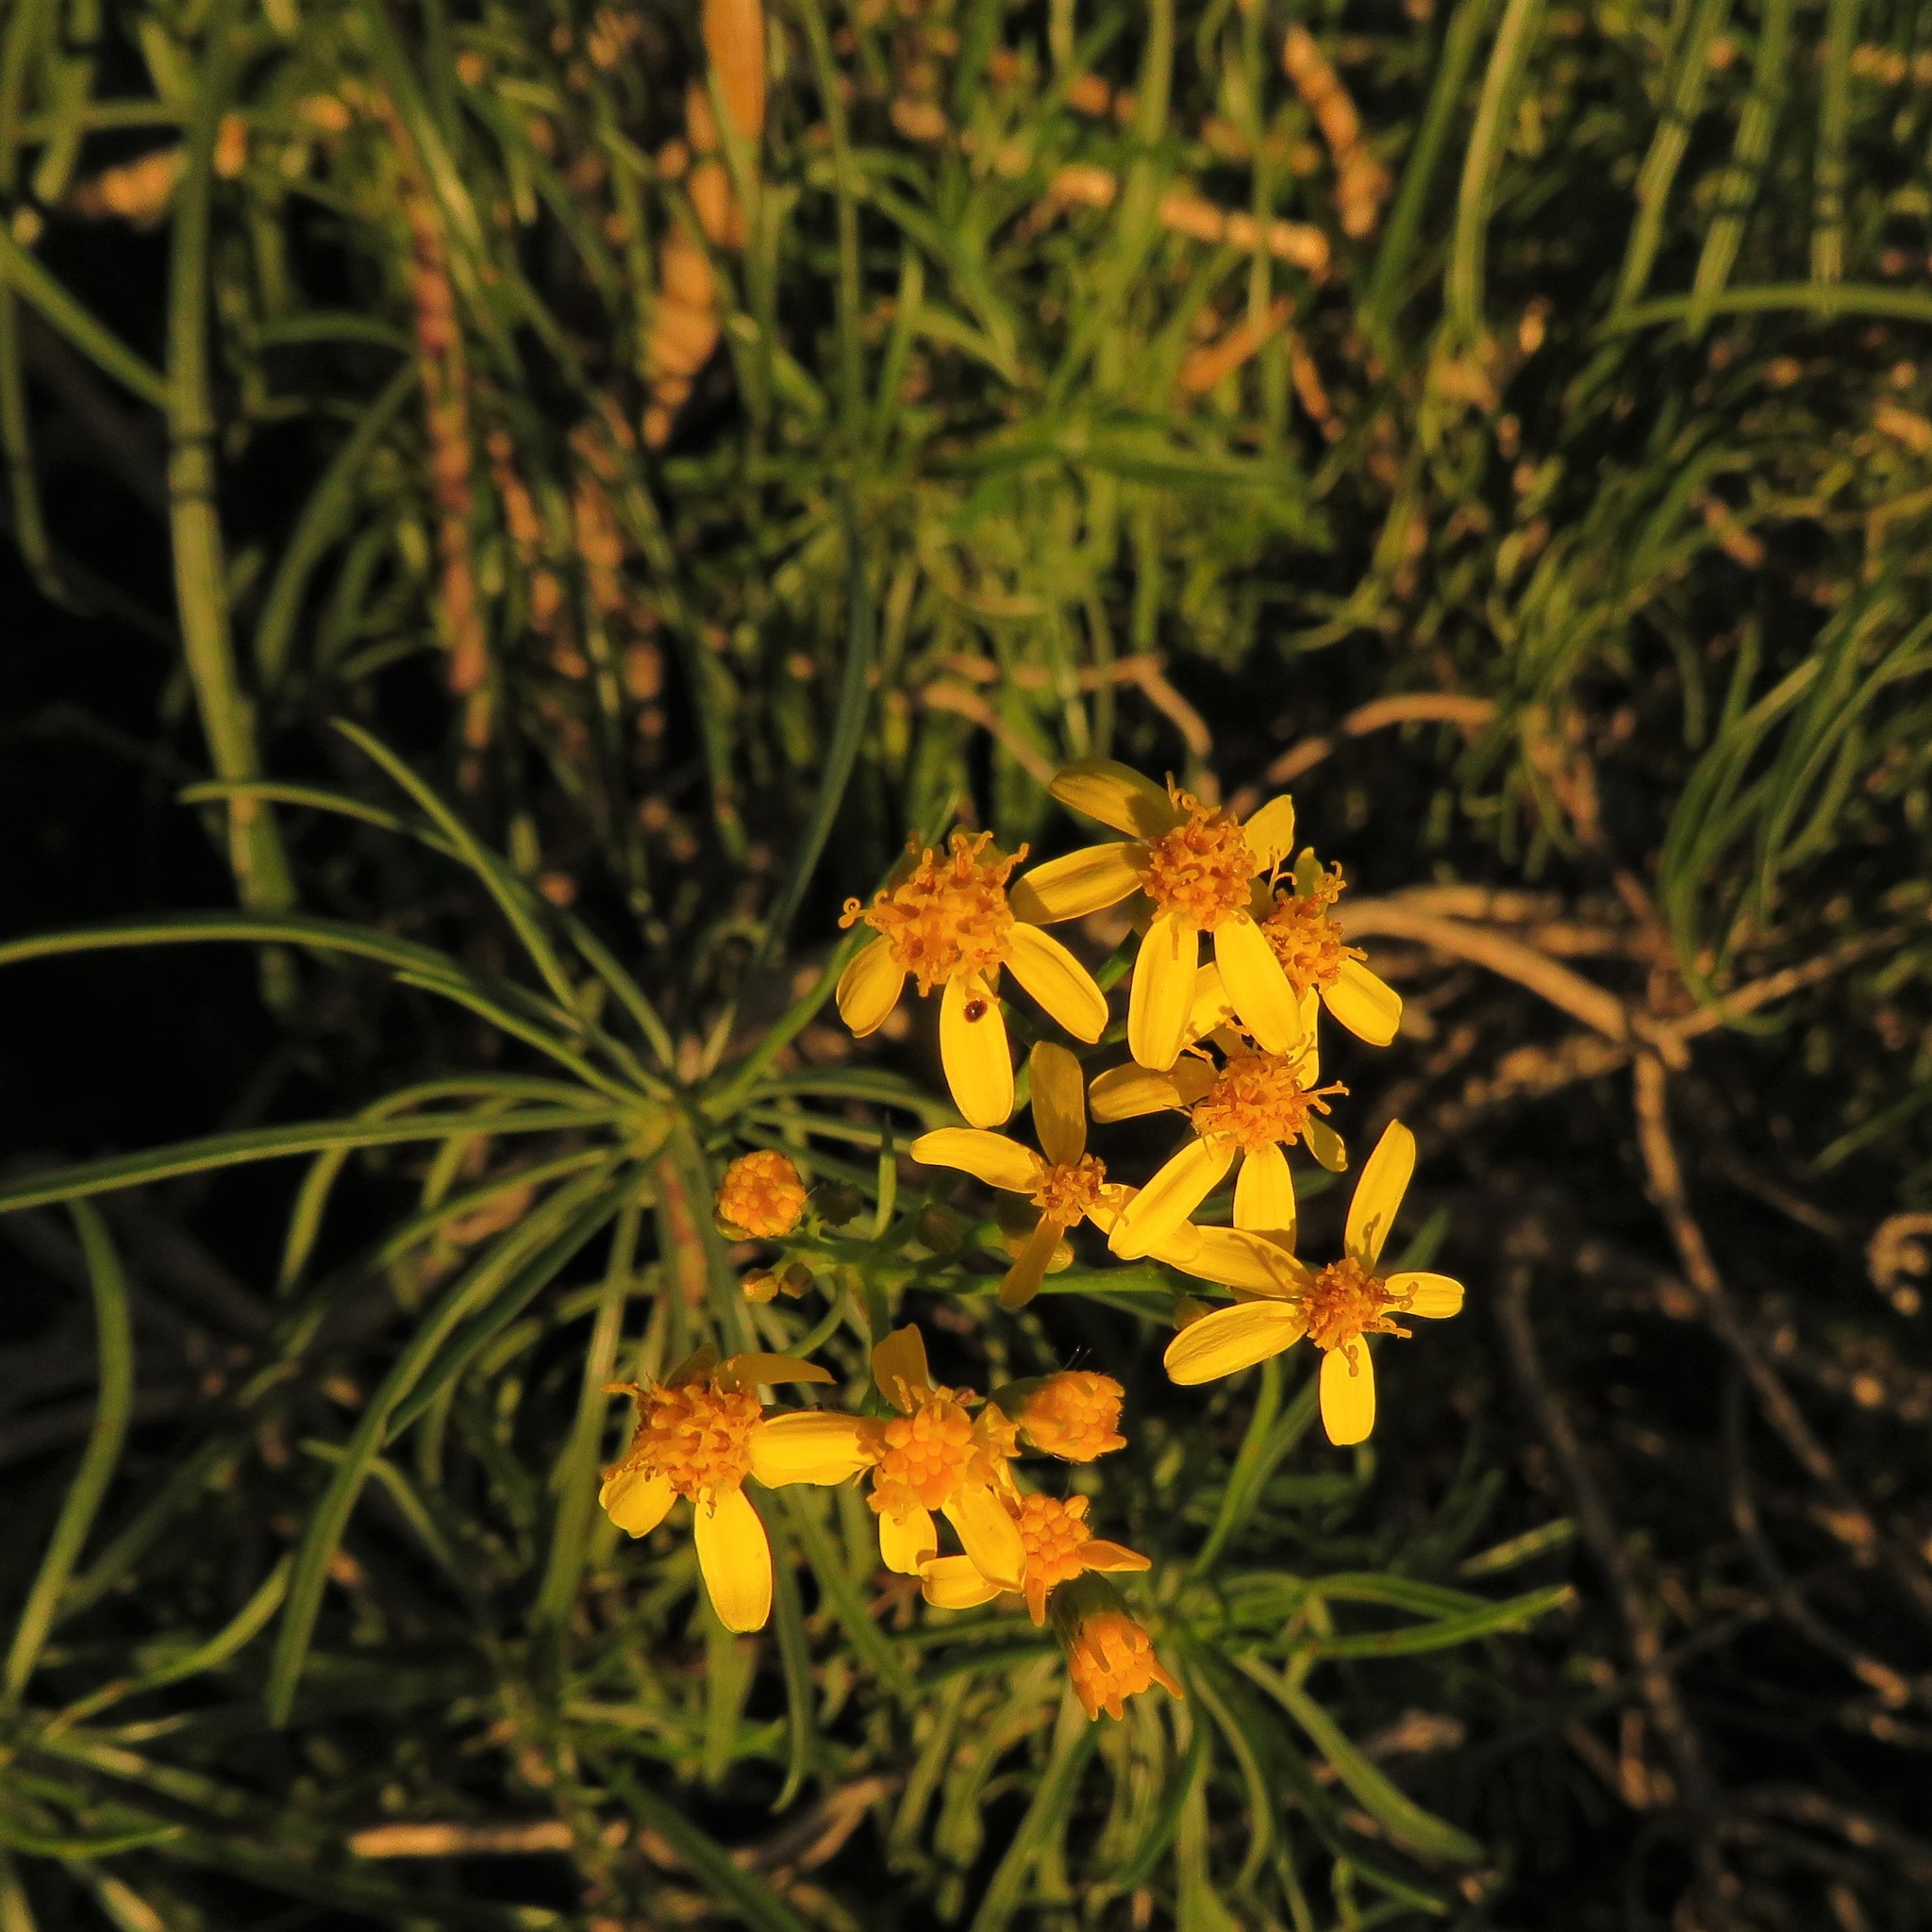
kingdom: Plantae
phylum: Tracheophyta
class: Magnoliopsida
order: Asterales
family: Asteraceae
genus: Senecio
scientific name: Senecio linifolius
